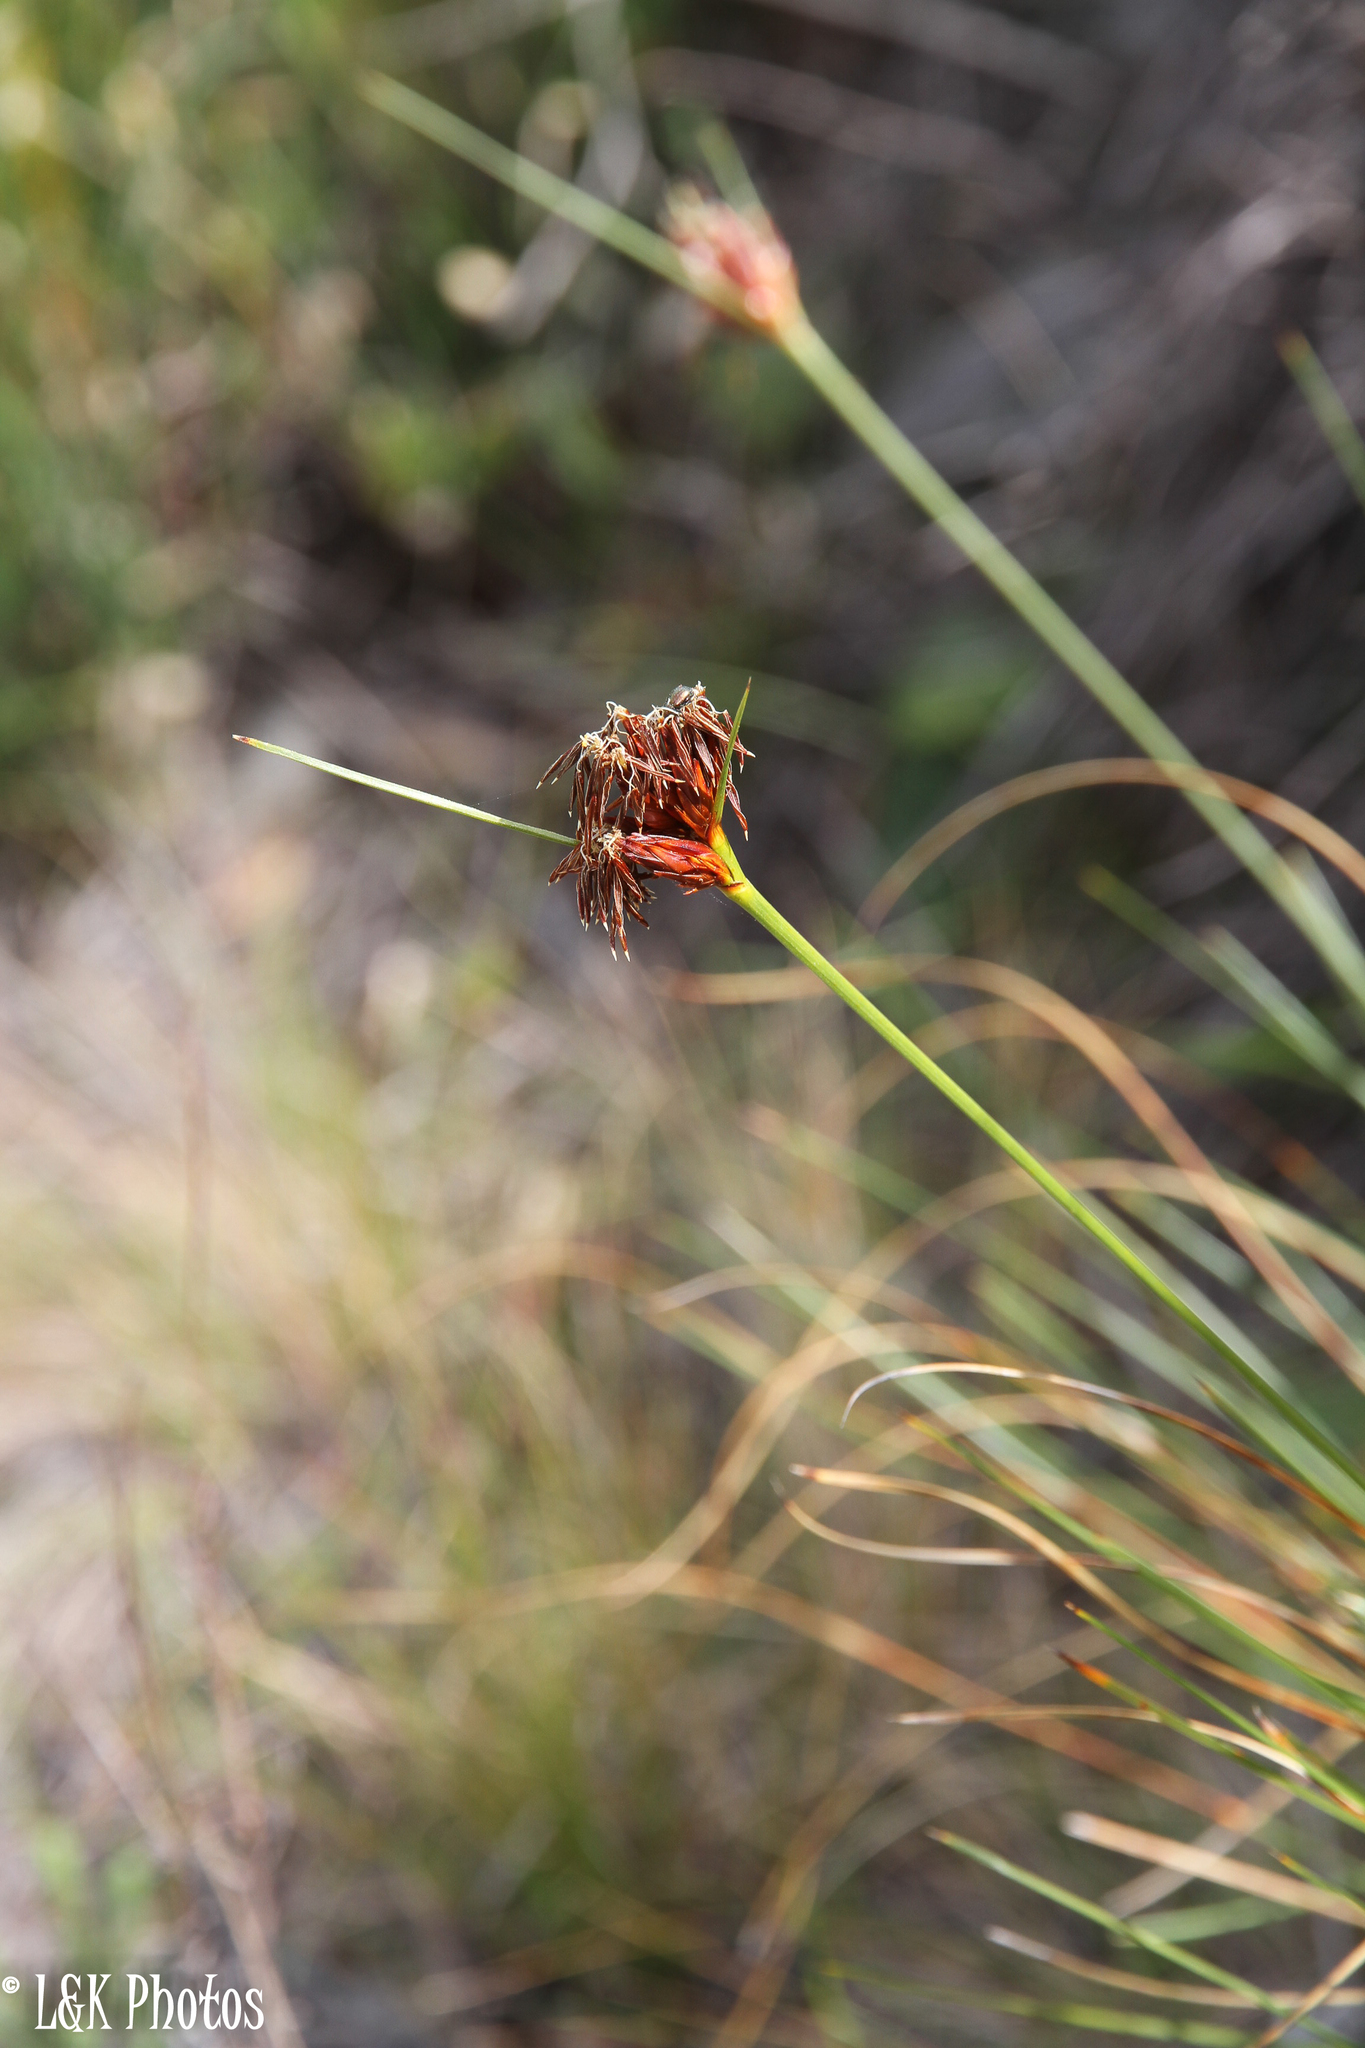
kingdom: Plantae
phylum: Tracheophyta
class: Liliopsida
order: Poales
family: Cyperaceae
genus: Schoenus
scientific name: Schoenus compar
